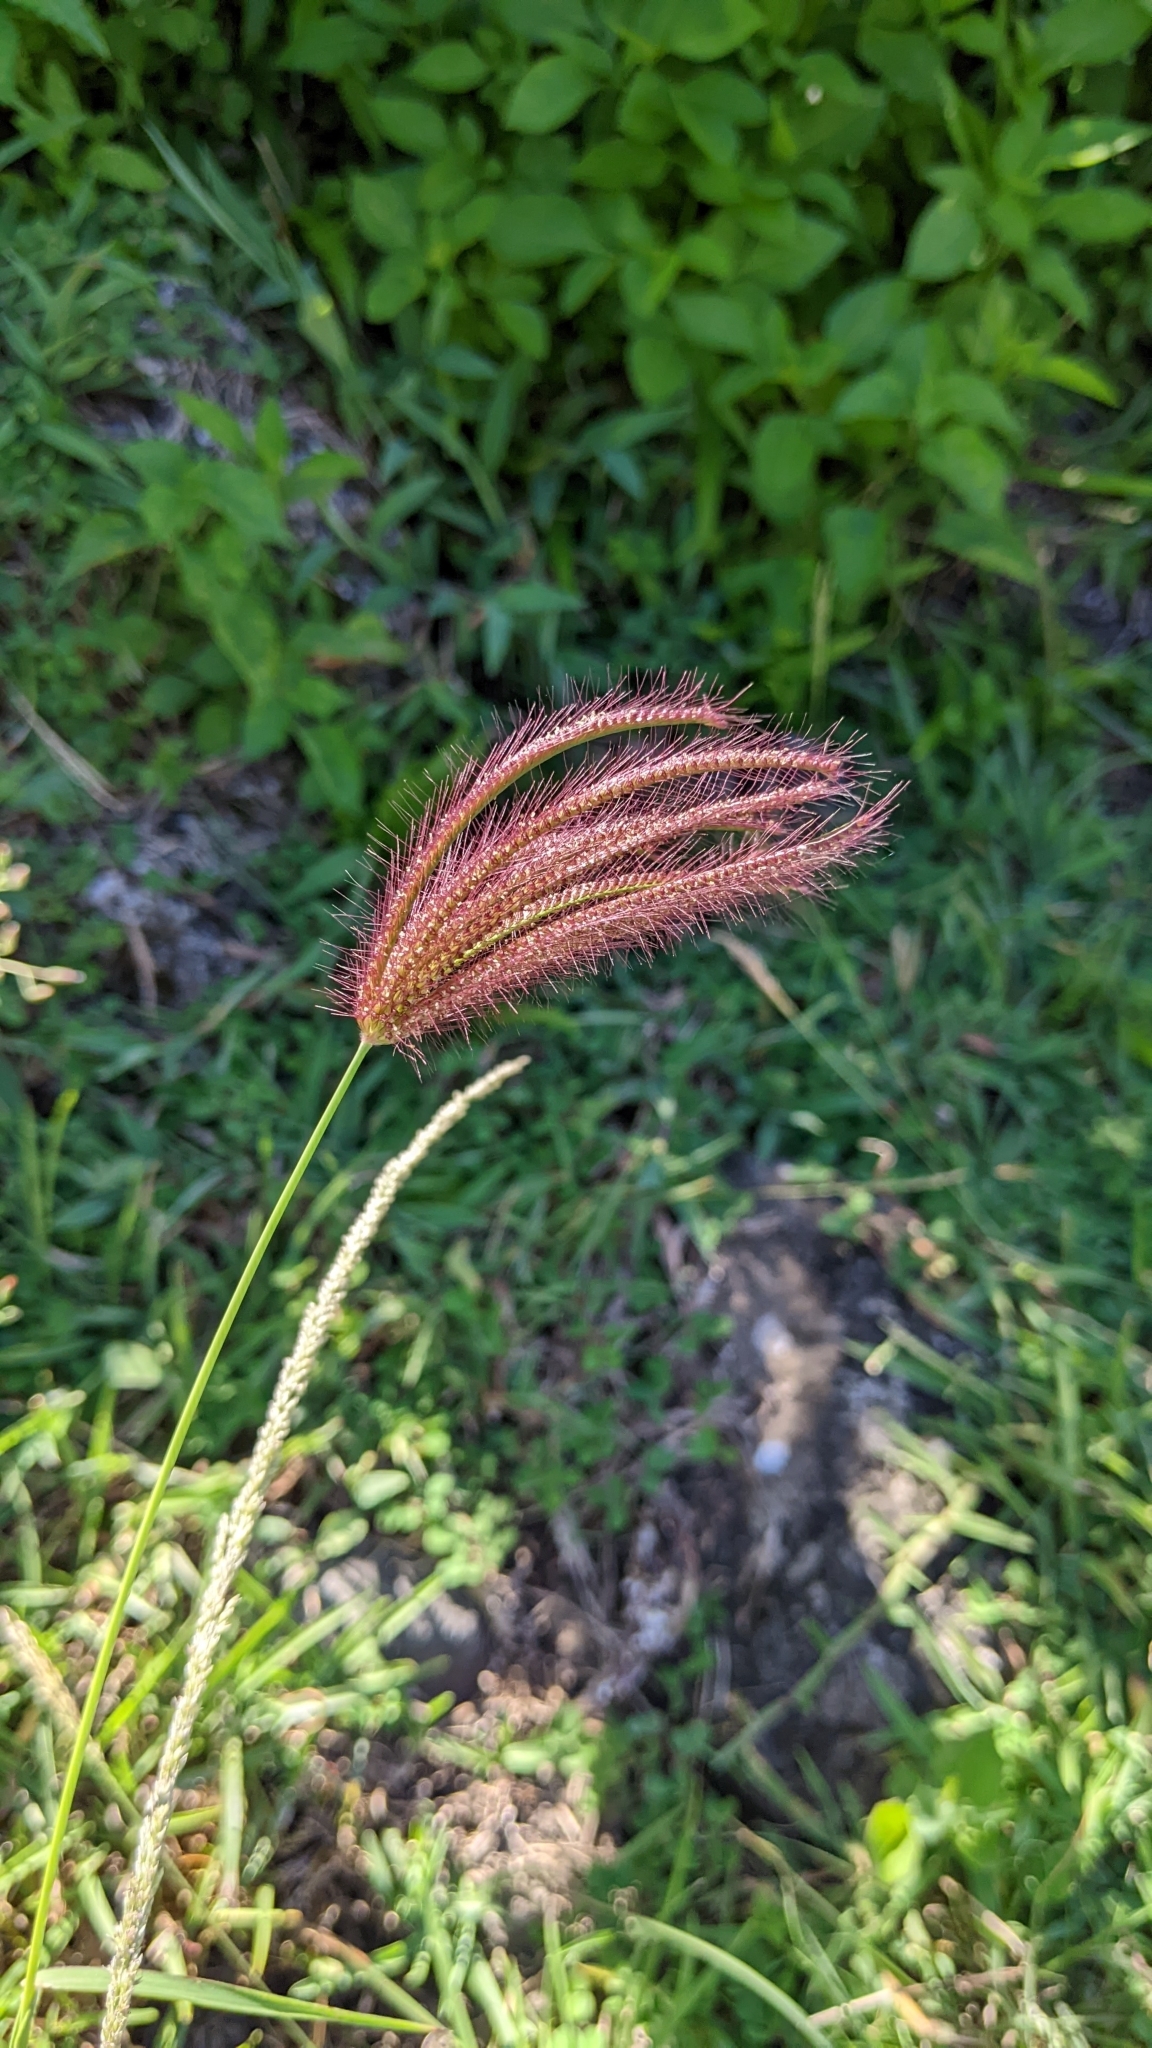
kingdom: Plantae
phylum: Tracheophyta
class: Liliopsida
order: Poales
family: Poaceae
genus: Chloris
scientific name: Chloris barbata
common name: Swollen fingergrass
